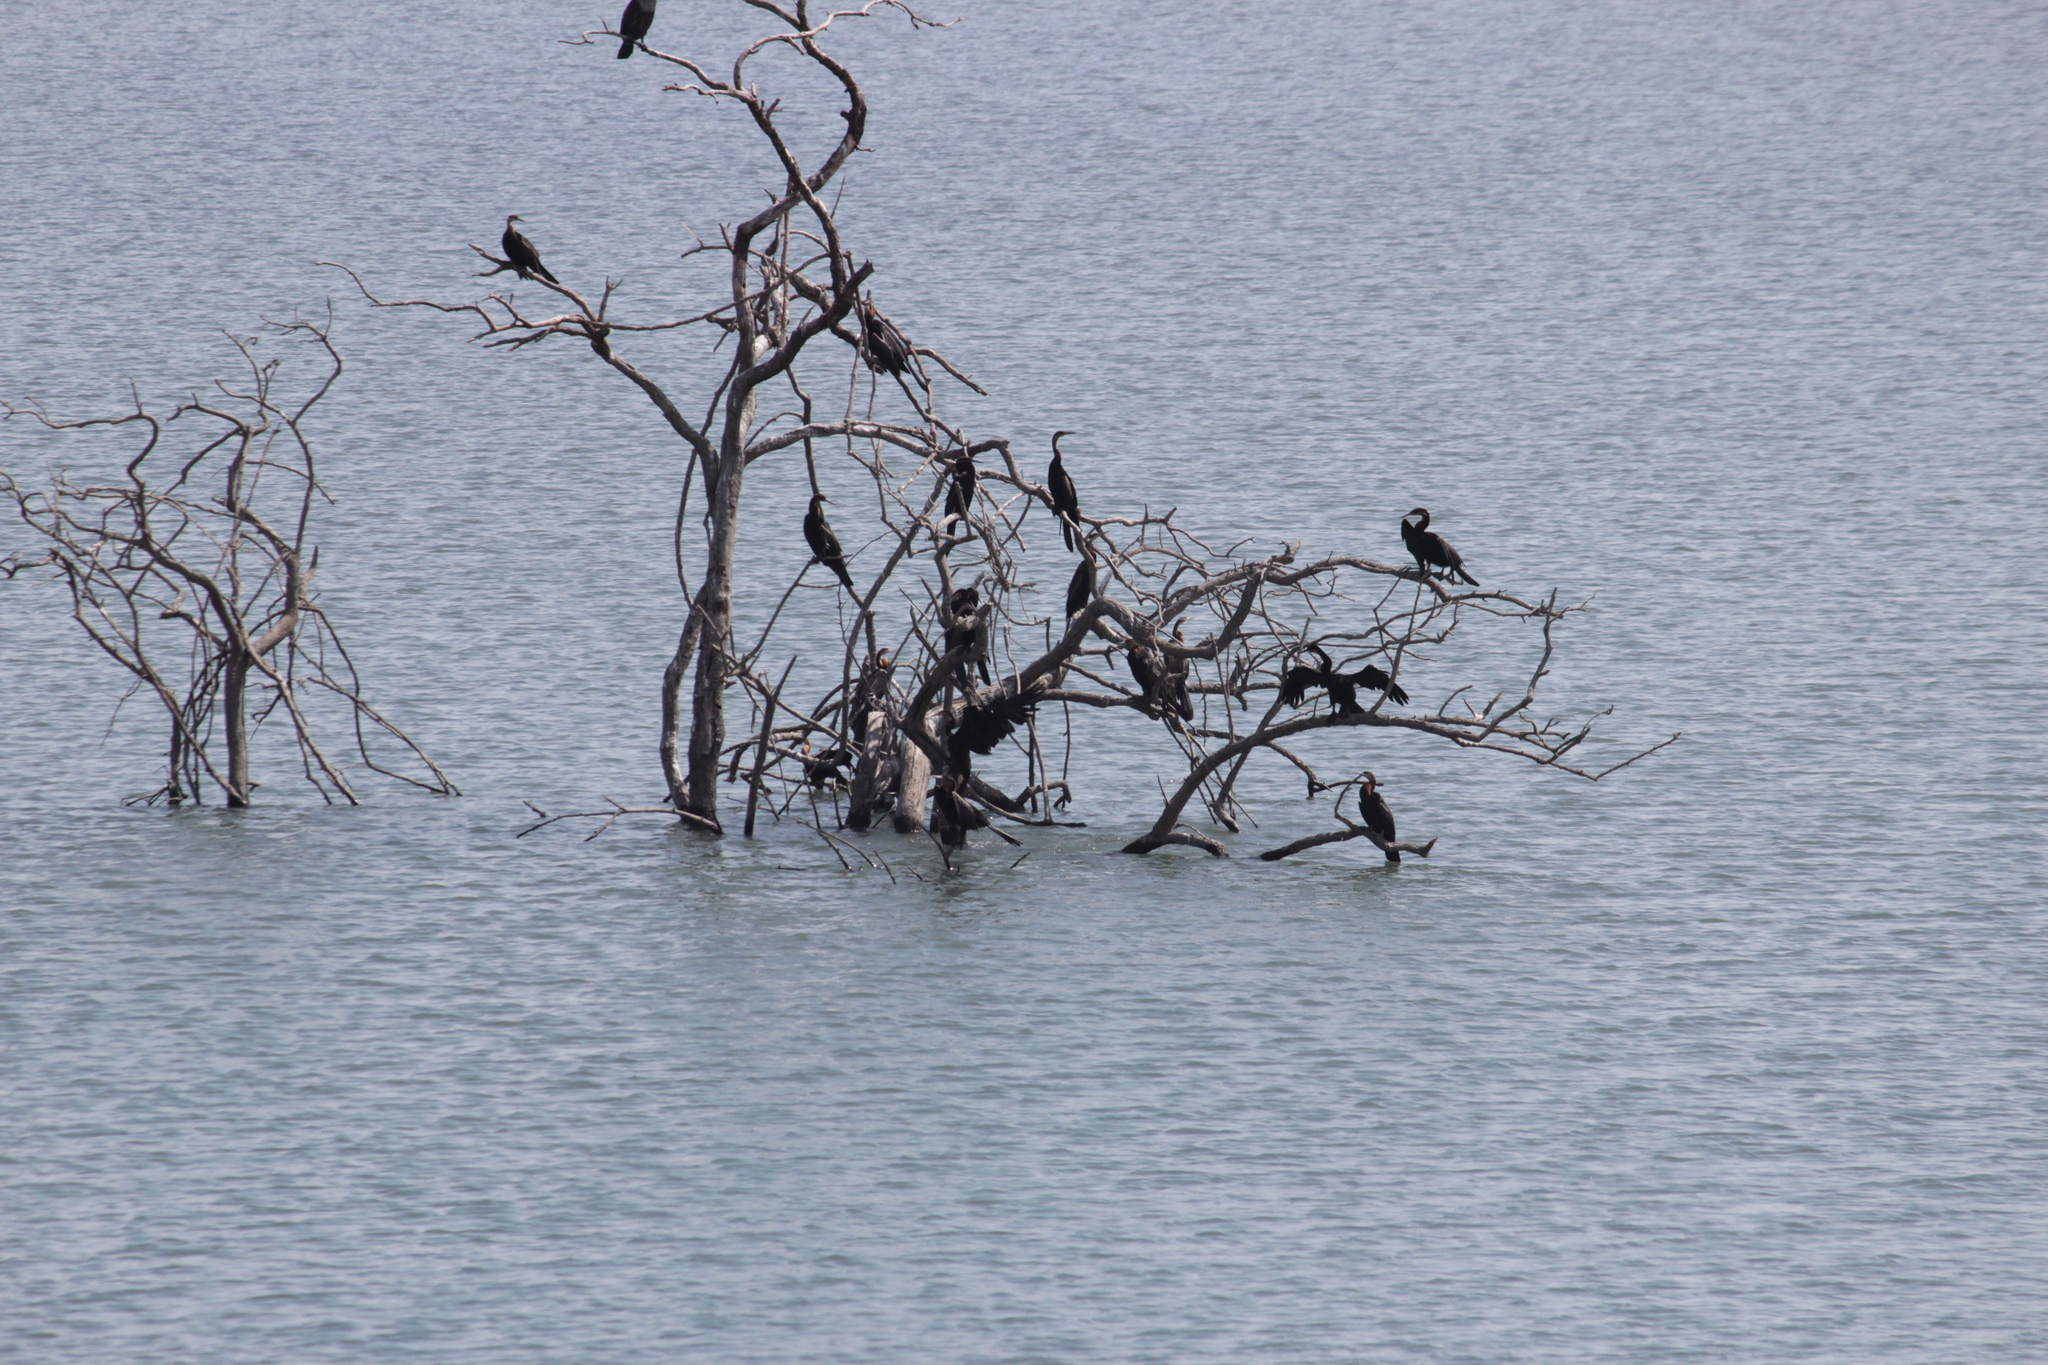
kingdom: Animalia
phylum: Chordata
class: Aves
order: Suliformes
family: Anhingidae
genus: Anhinga
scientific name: Anhinga rufa
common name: African darter
